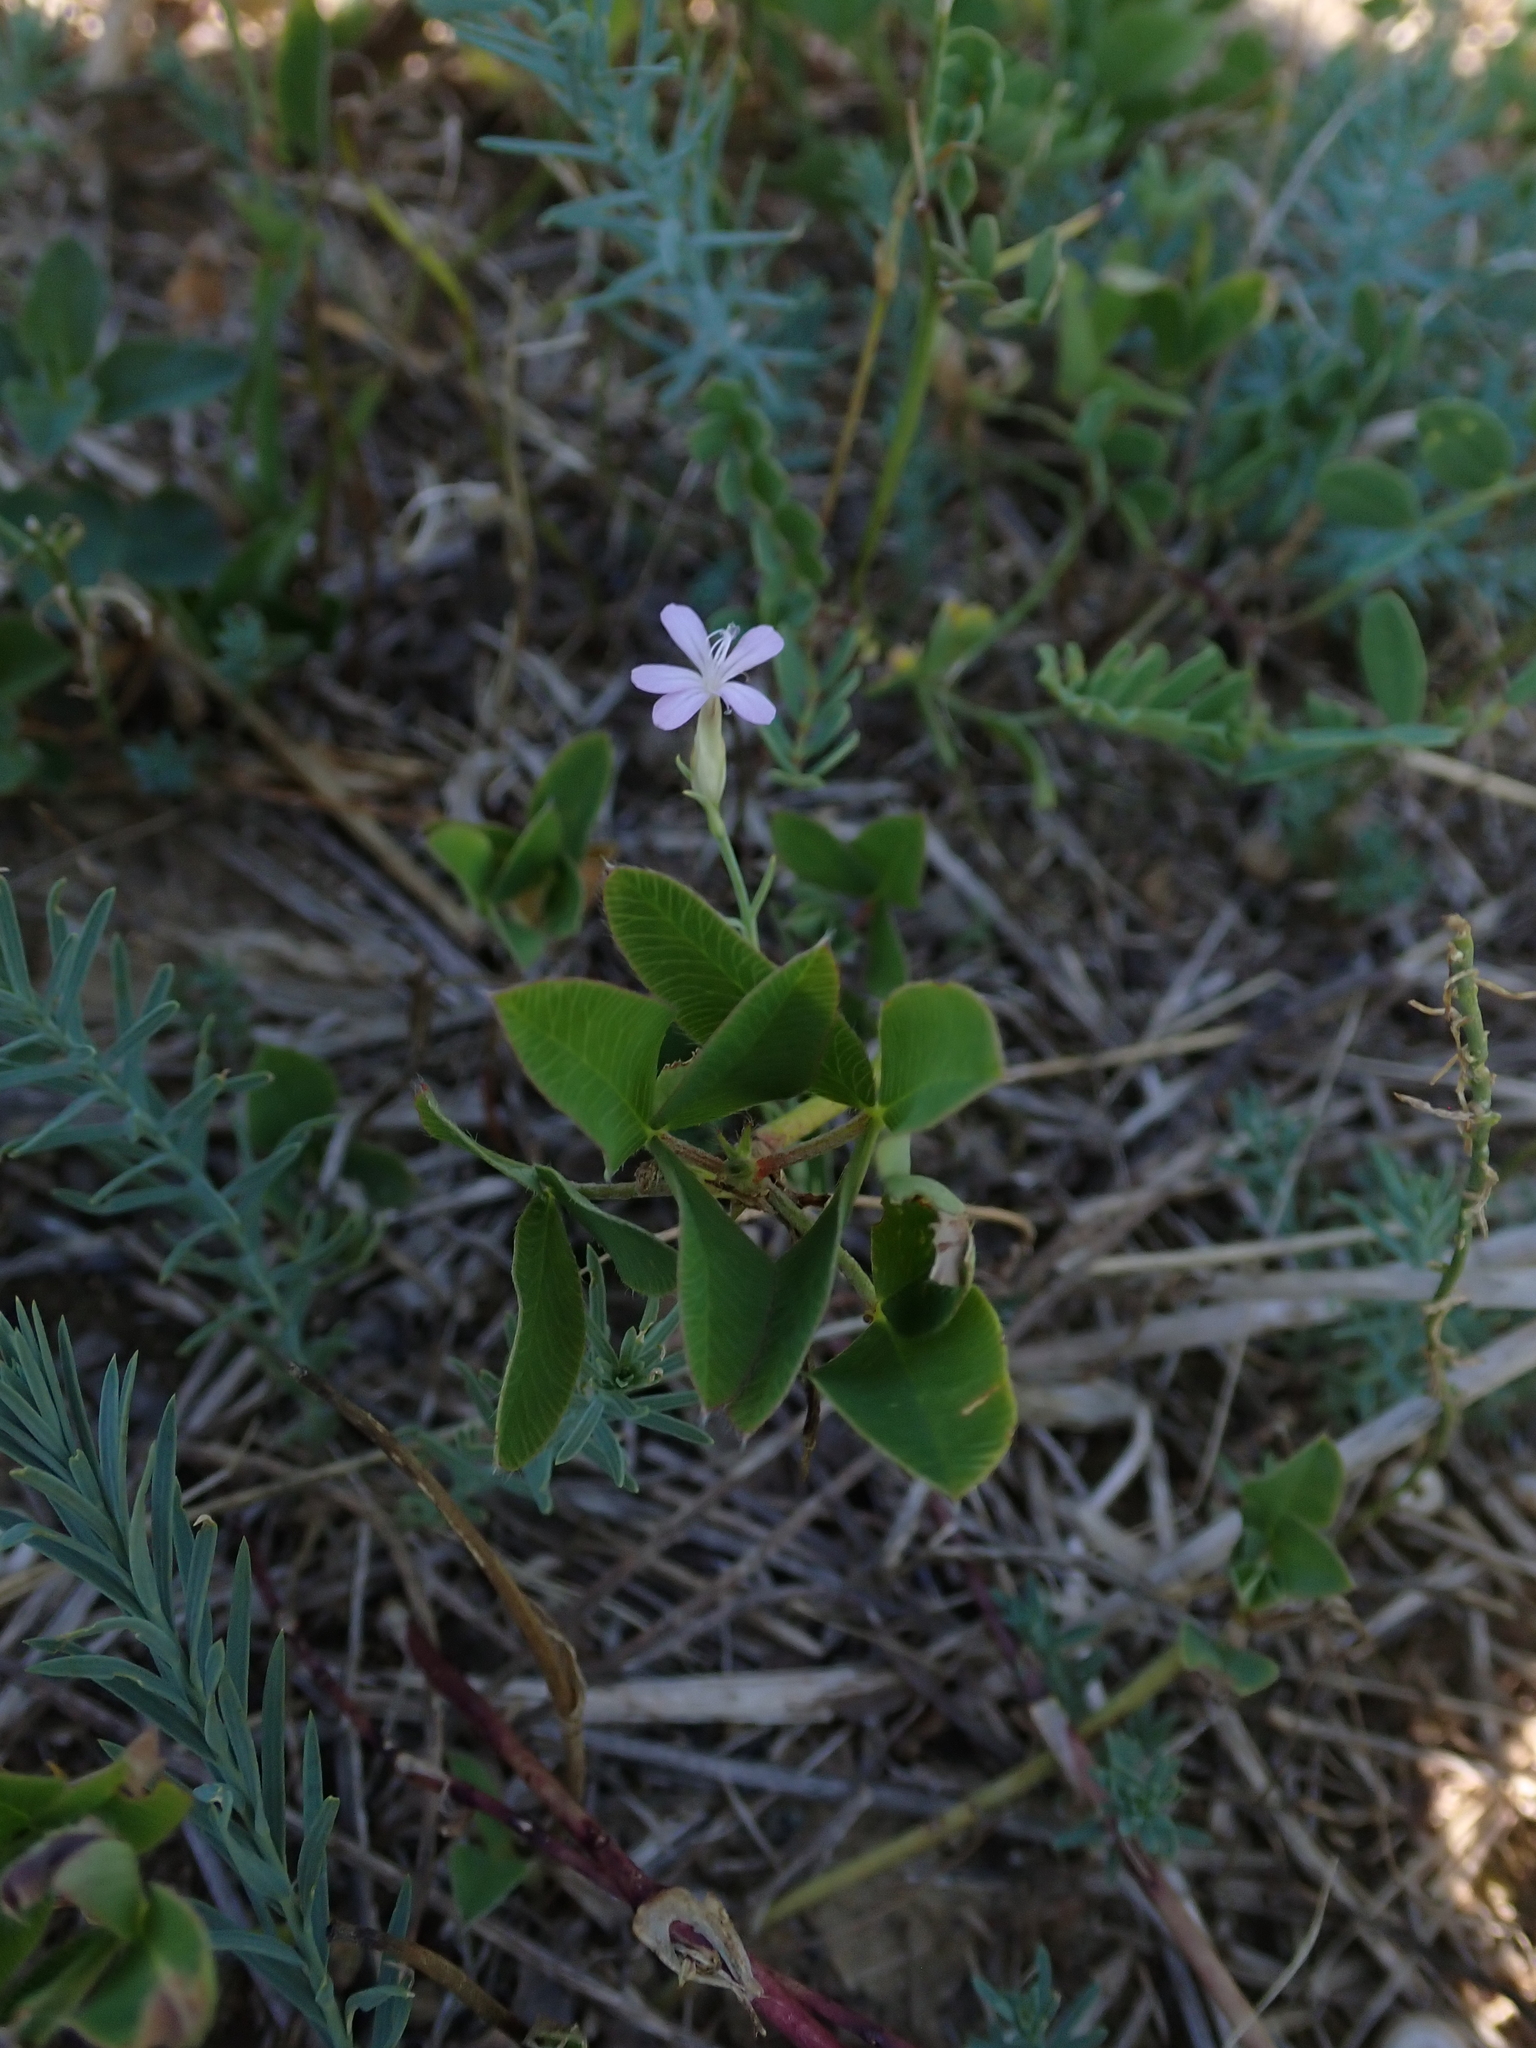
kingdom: Plantae
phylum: Tracheophyta
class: Magnoliopsida
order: Caryophyllales
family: Caryophyllaceae
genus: Petrorhagia
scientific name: Petrorhagia prolifera
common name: Proliferous pink
